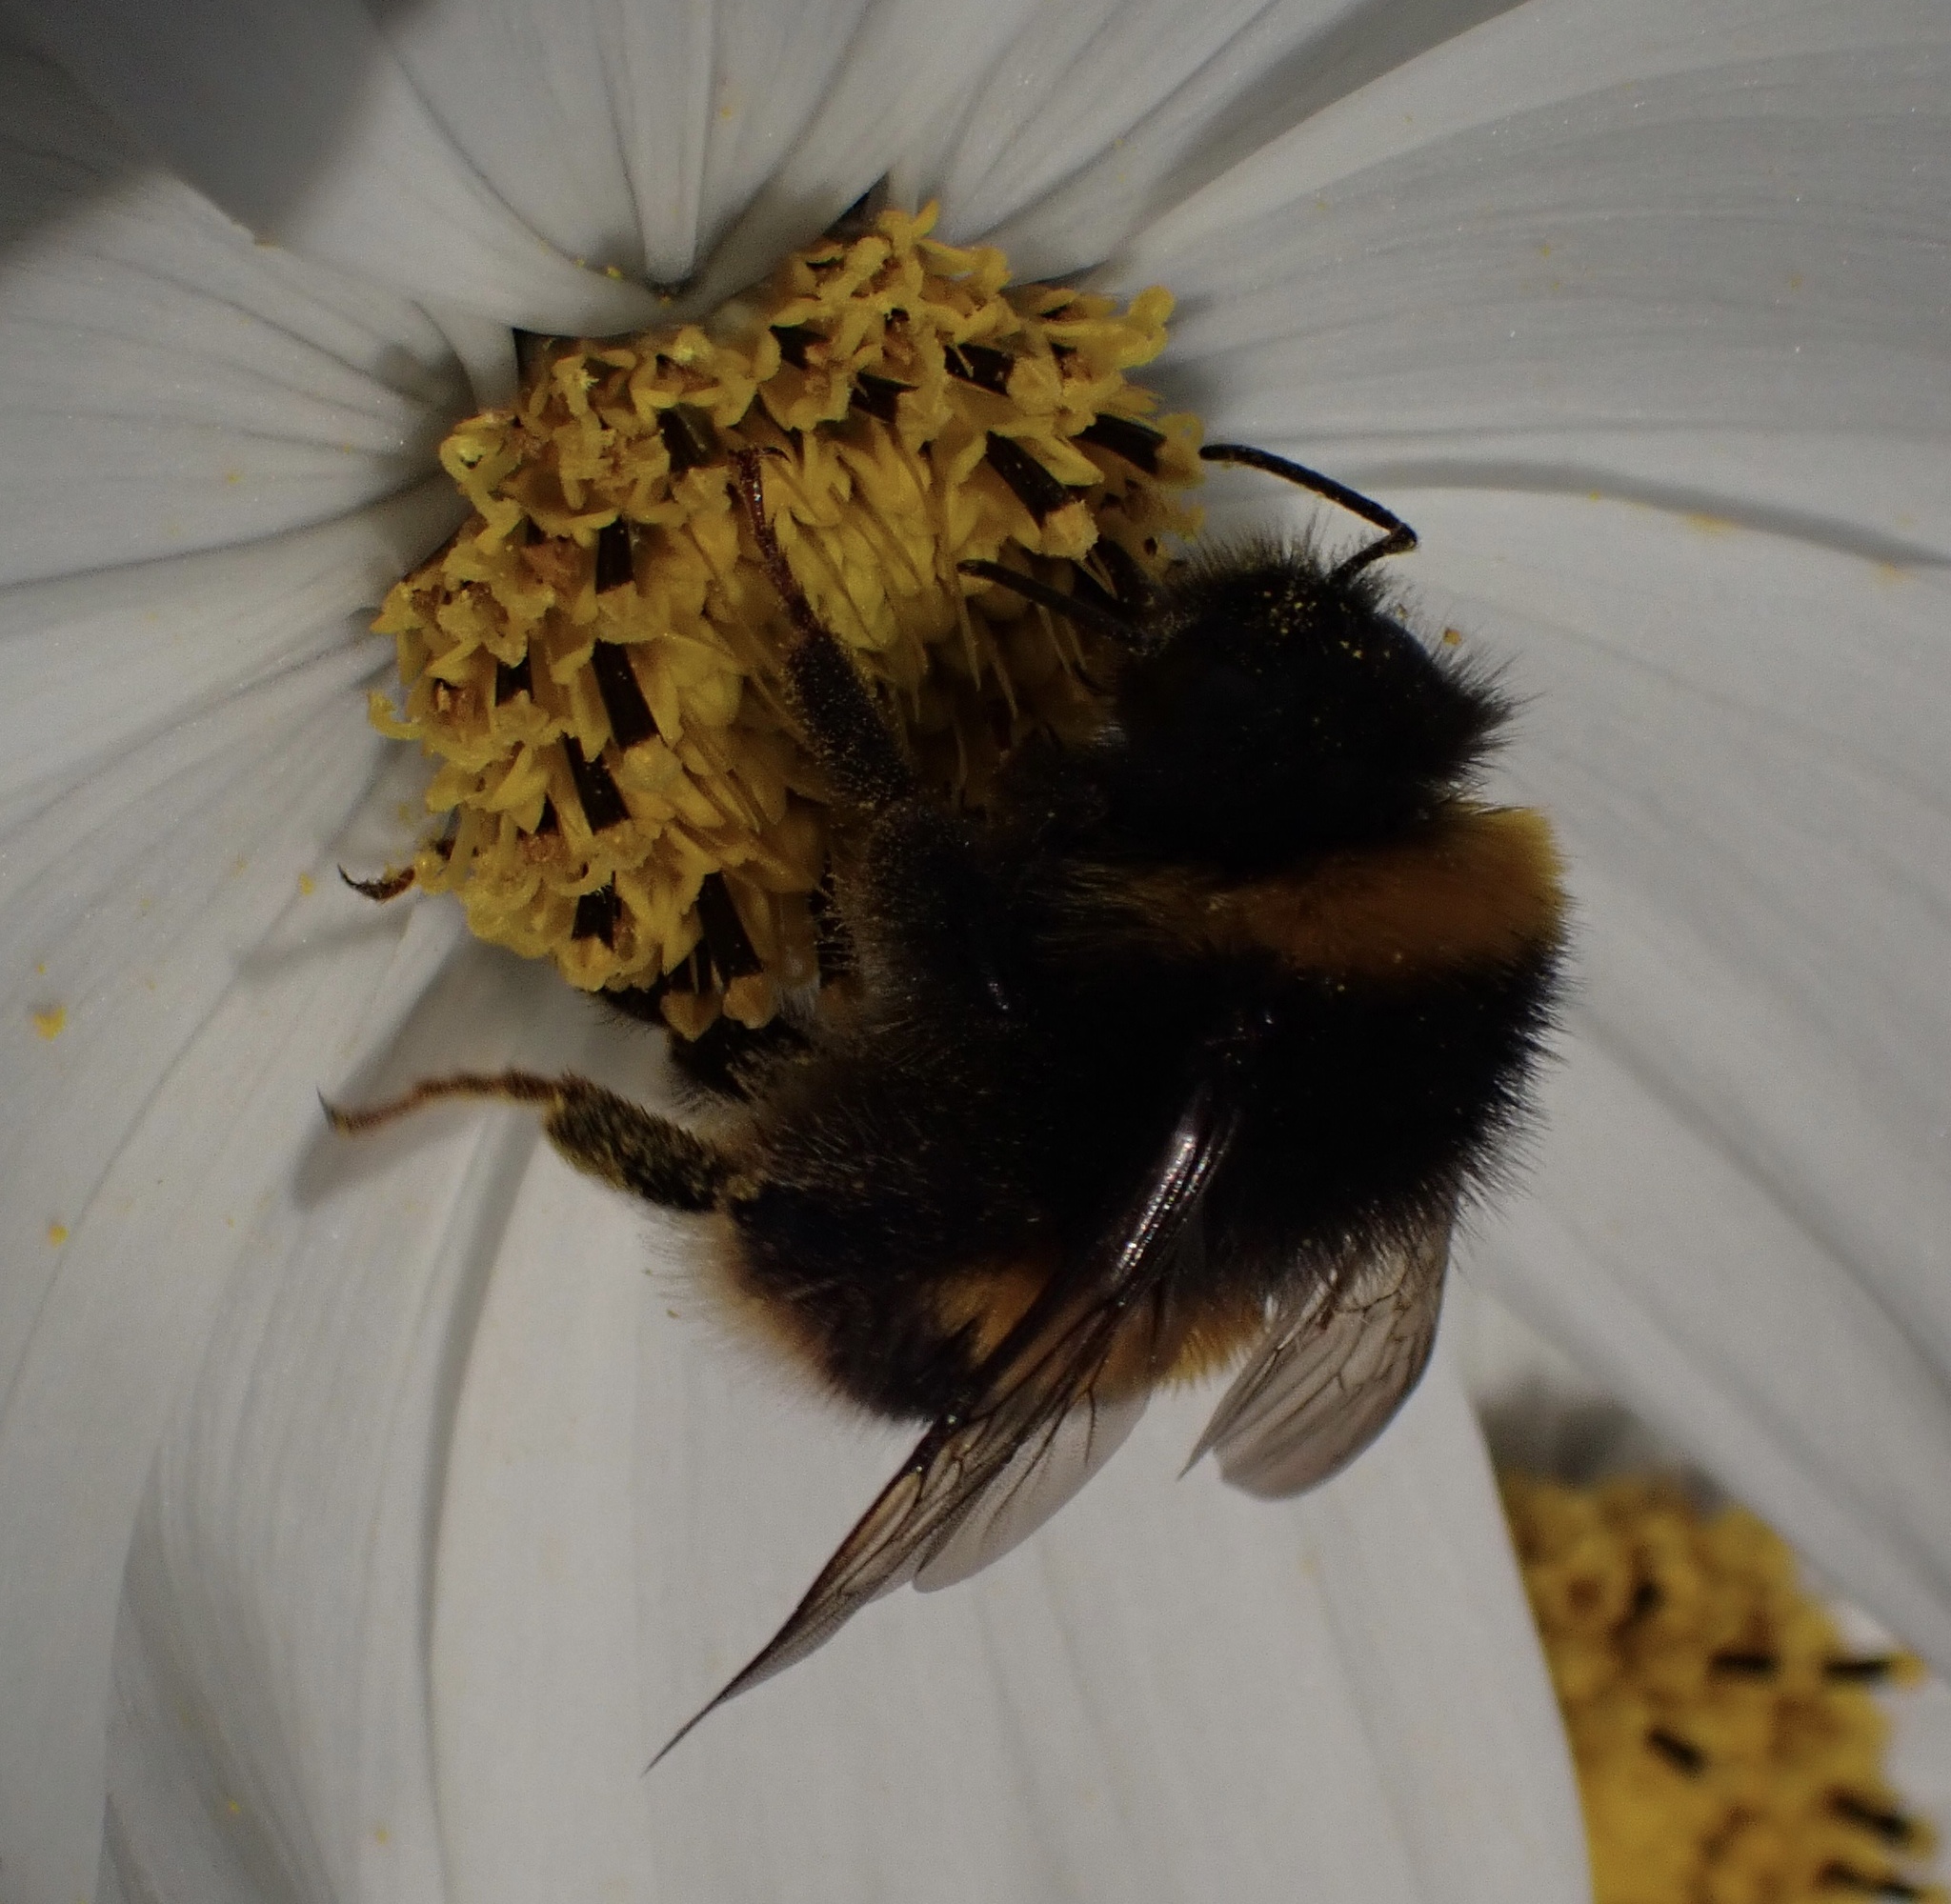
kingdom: Animalia
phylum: Arthropoda
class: Insecta
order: Hymenoptera
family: Apidae
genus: Bombus
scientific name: Bombus terrestris
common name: Buff-tailed bumblebee
